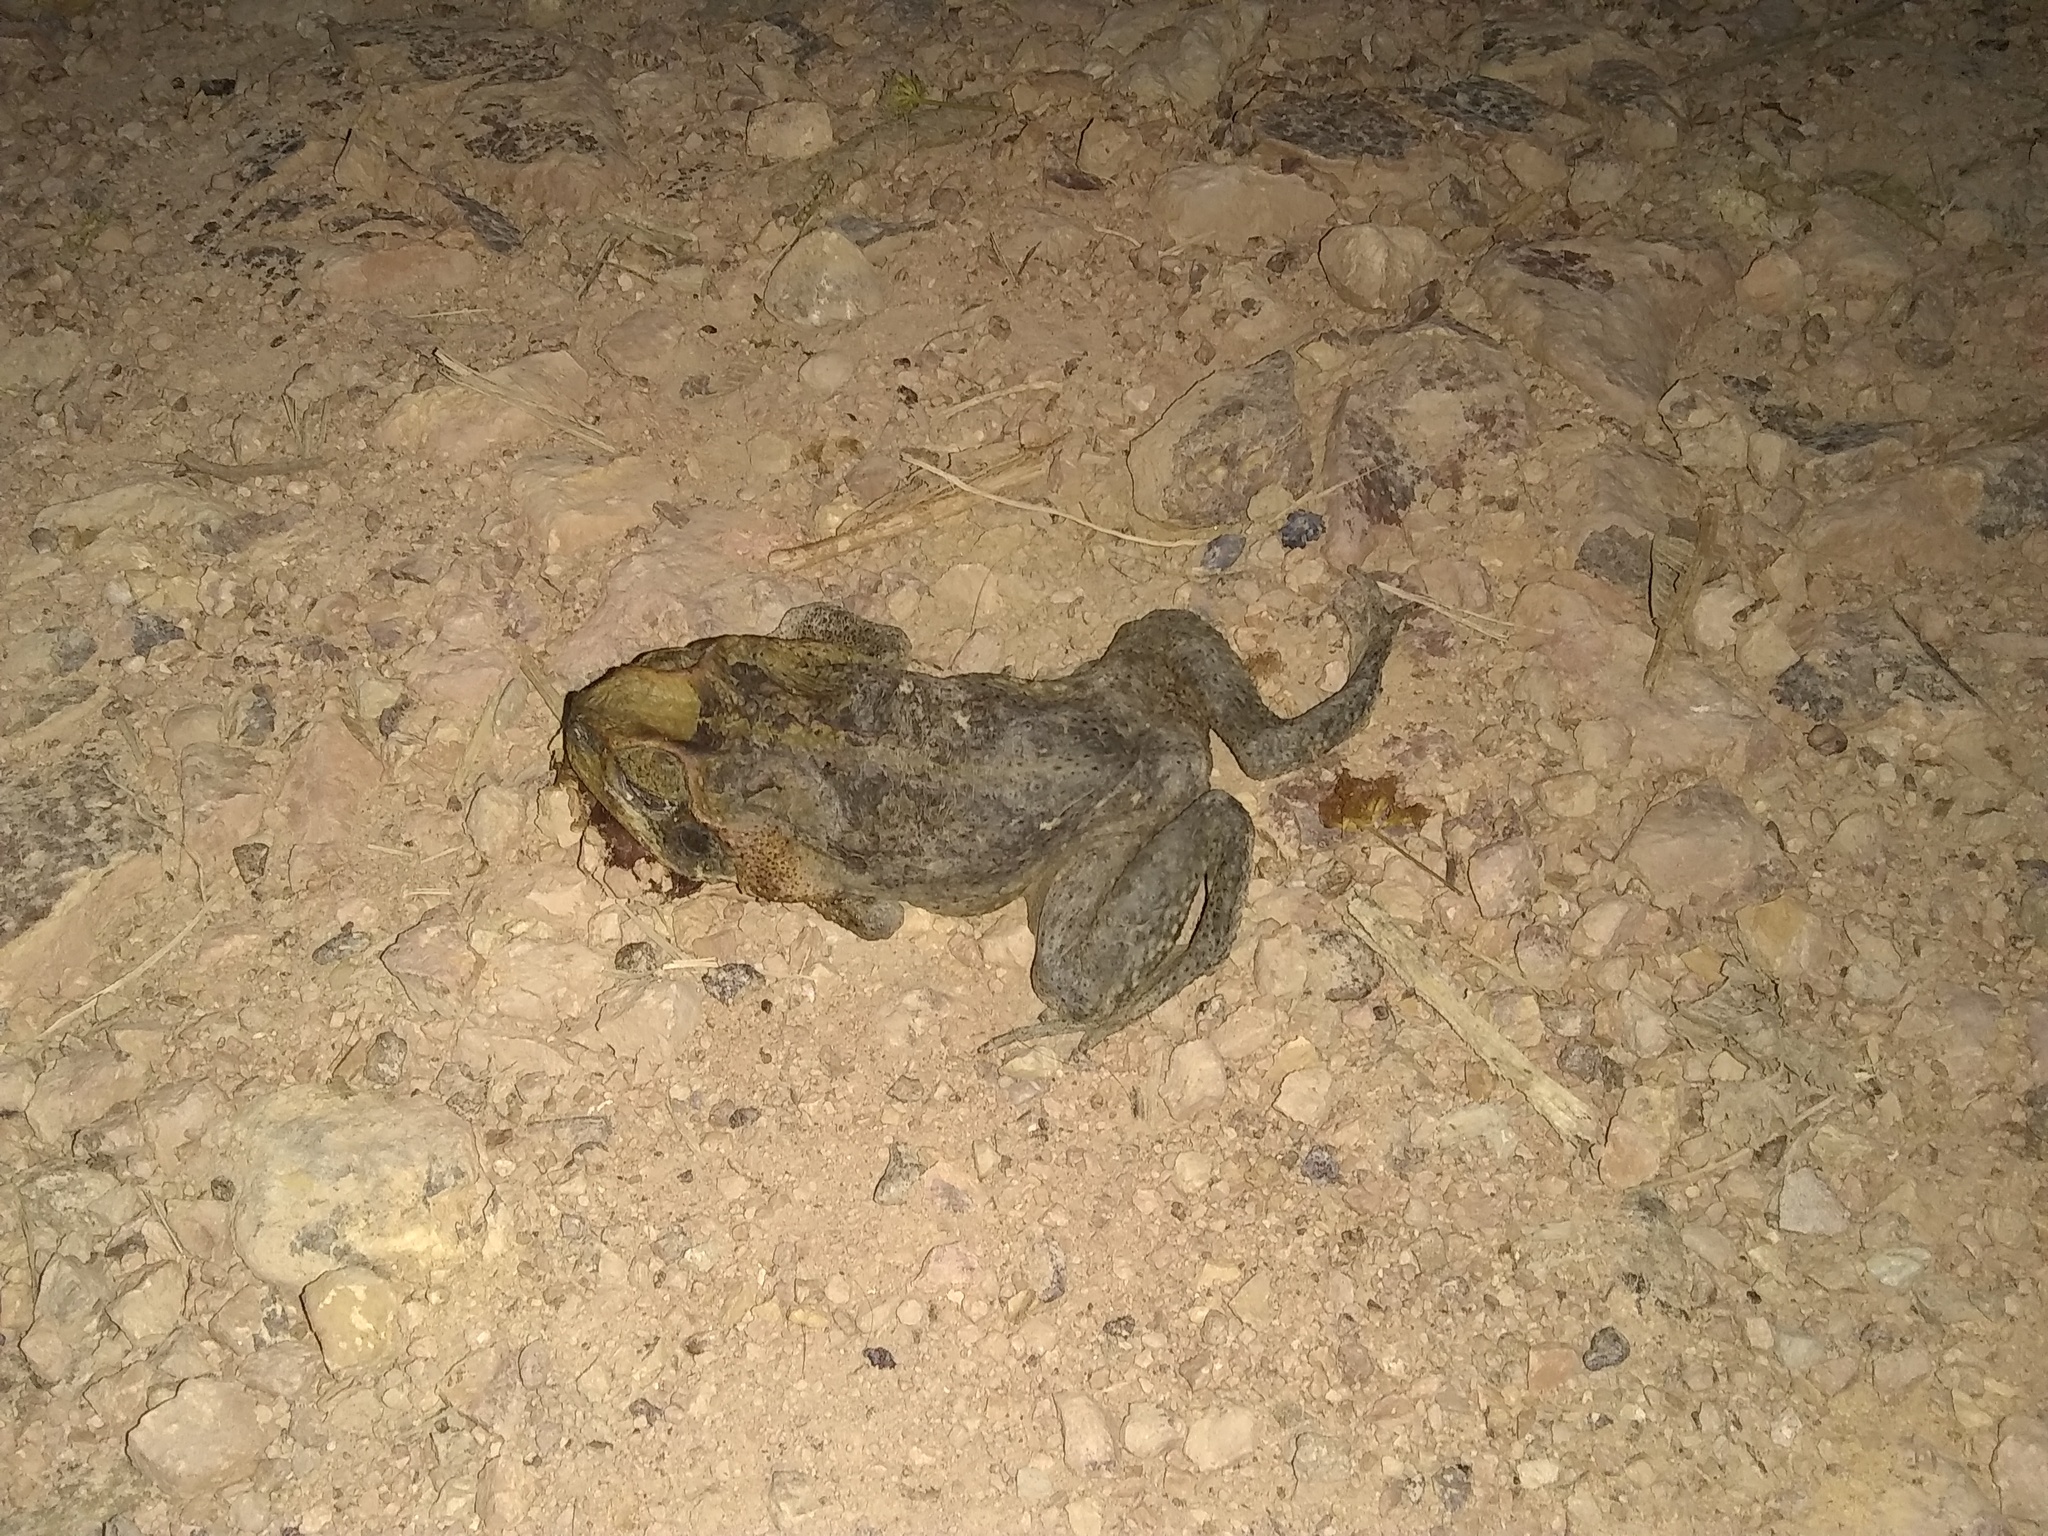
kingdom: Animalia
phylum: Chordata
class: Amphibia
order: Anura
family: Bufonidae
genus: Rhinella
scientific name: Rhinella horribilis
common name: Mesoamerican cane toad
